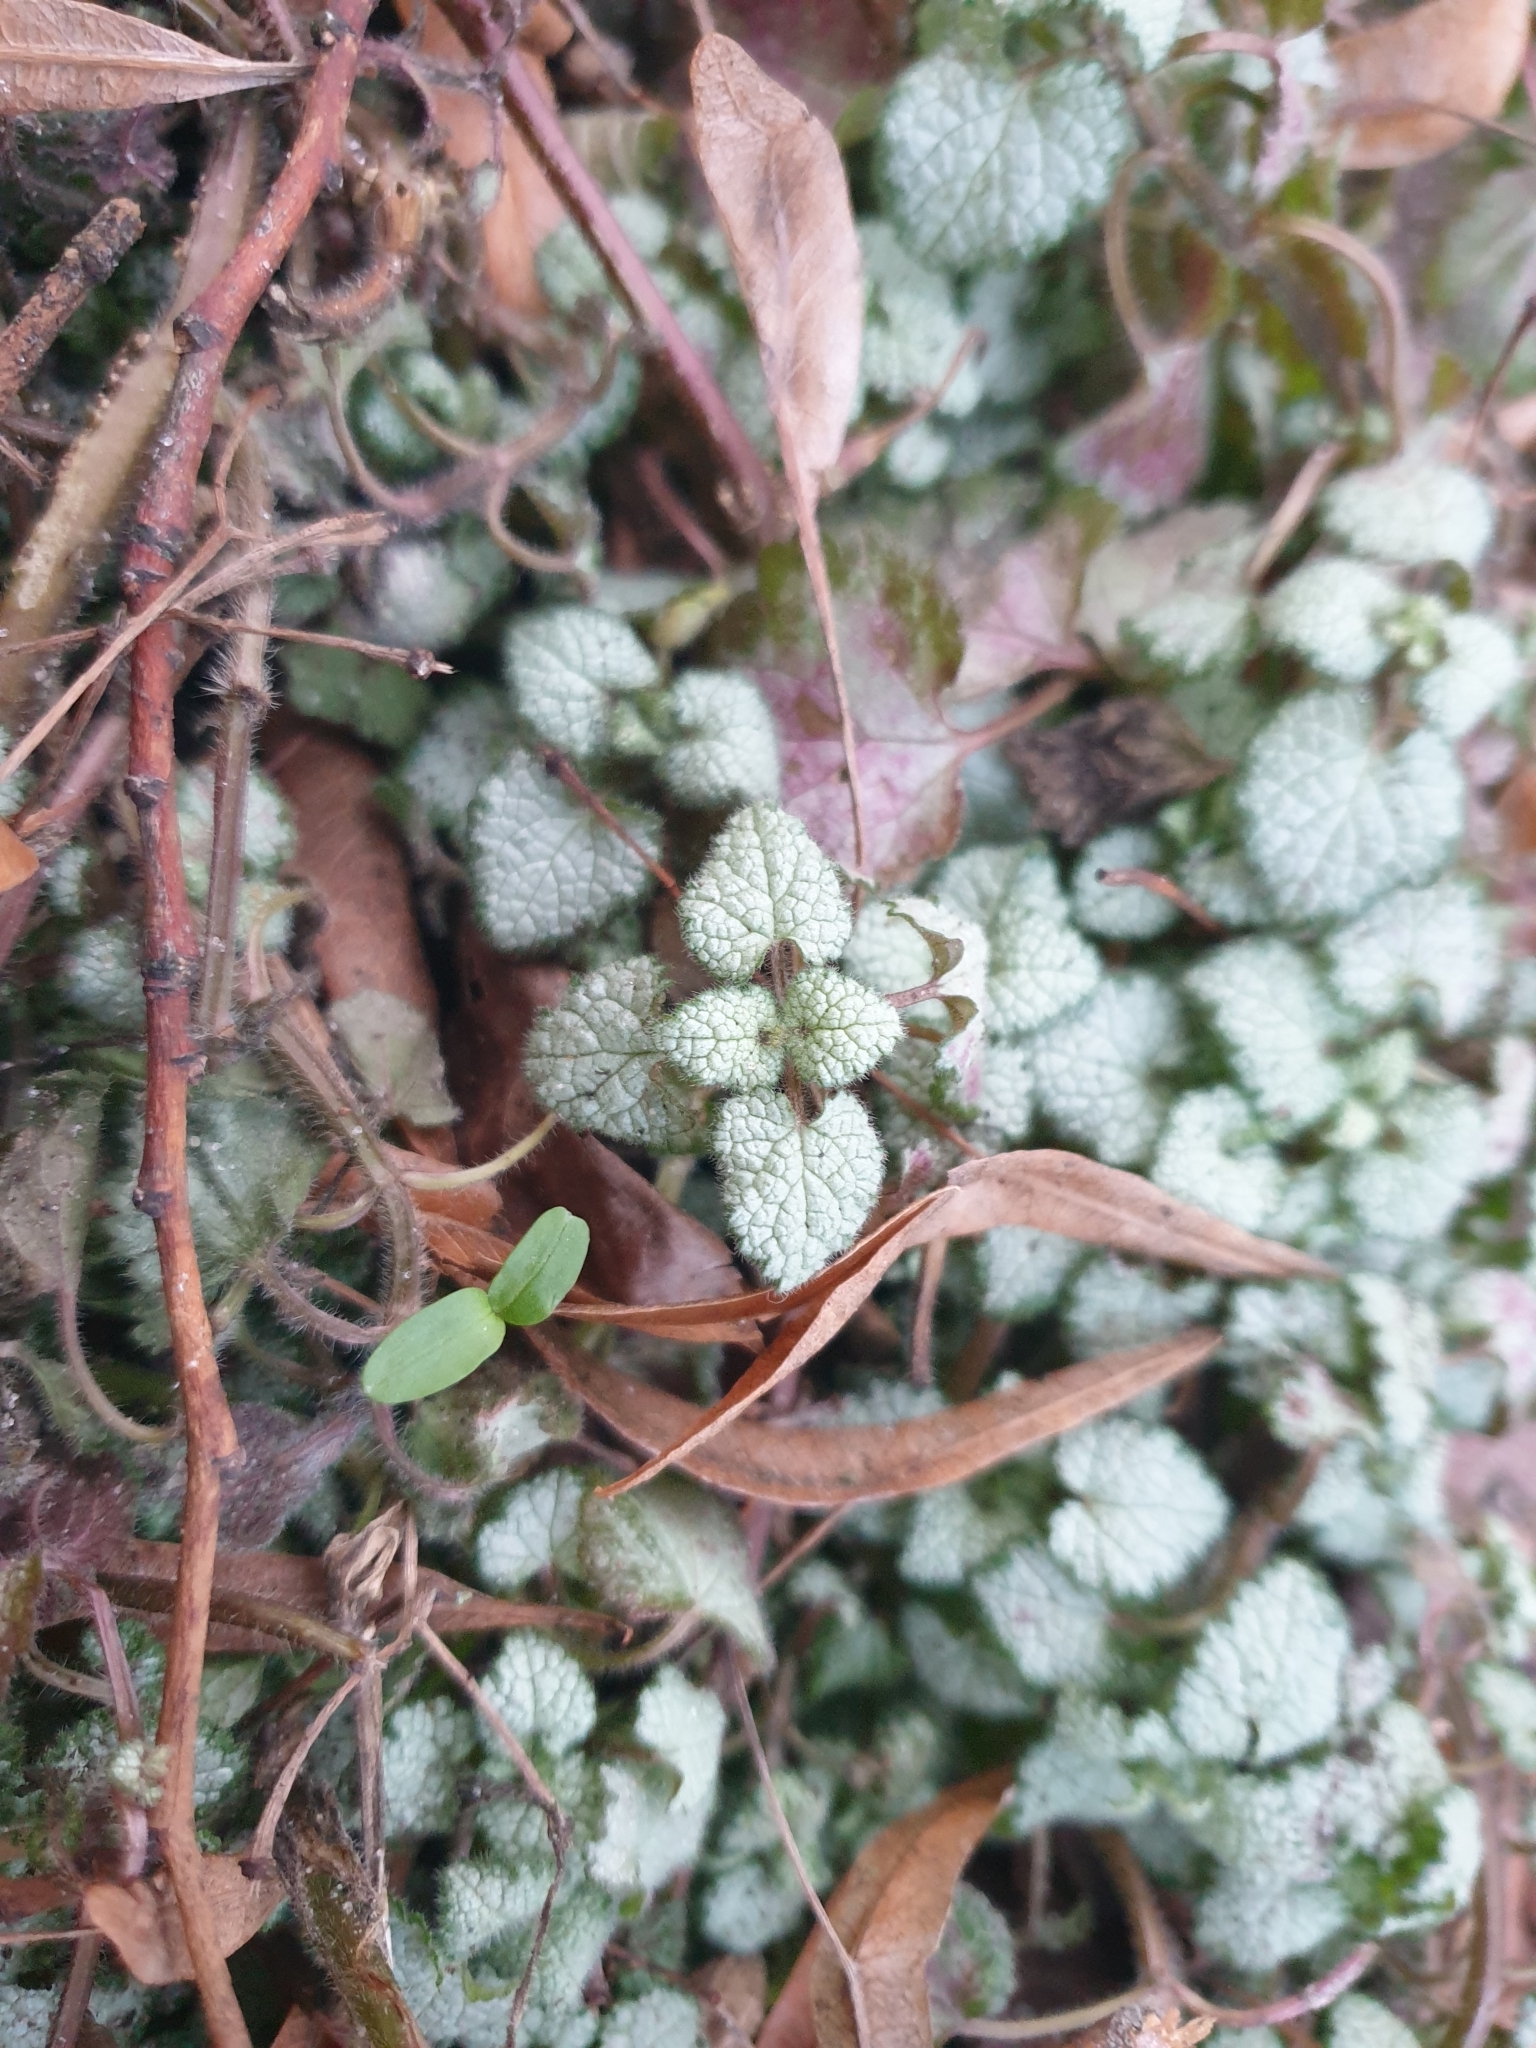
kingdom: Plantae
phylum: Tracheophyta
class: Magnoliopsida
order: Lamiales
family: Lamiaceae
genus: Lamium
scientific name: Lamium maculatum
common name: Spotted dead-nettle
